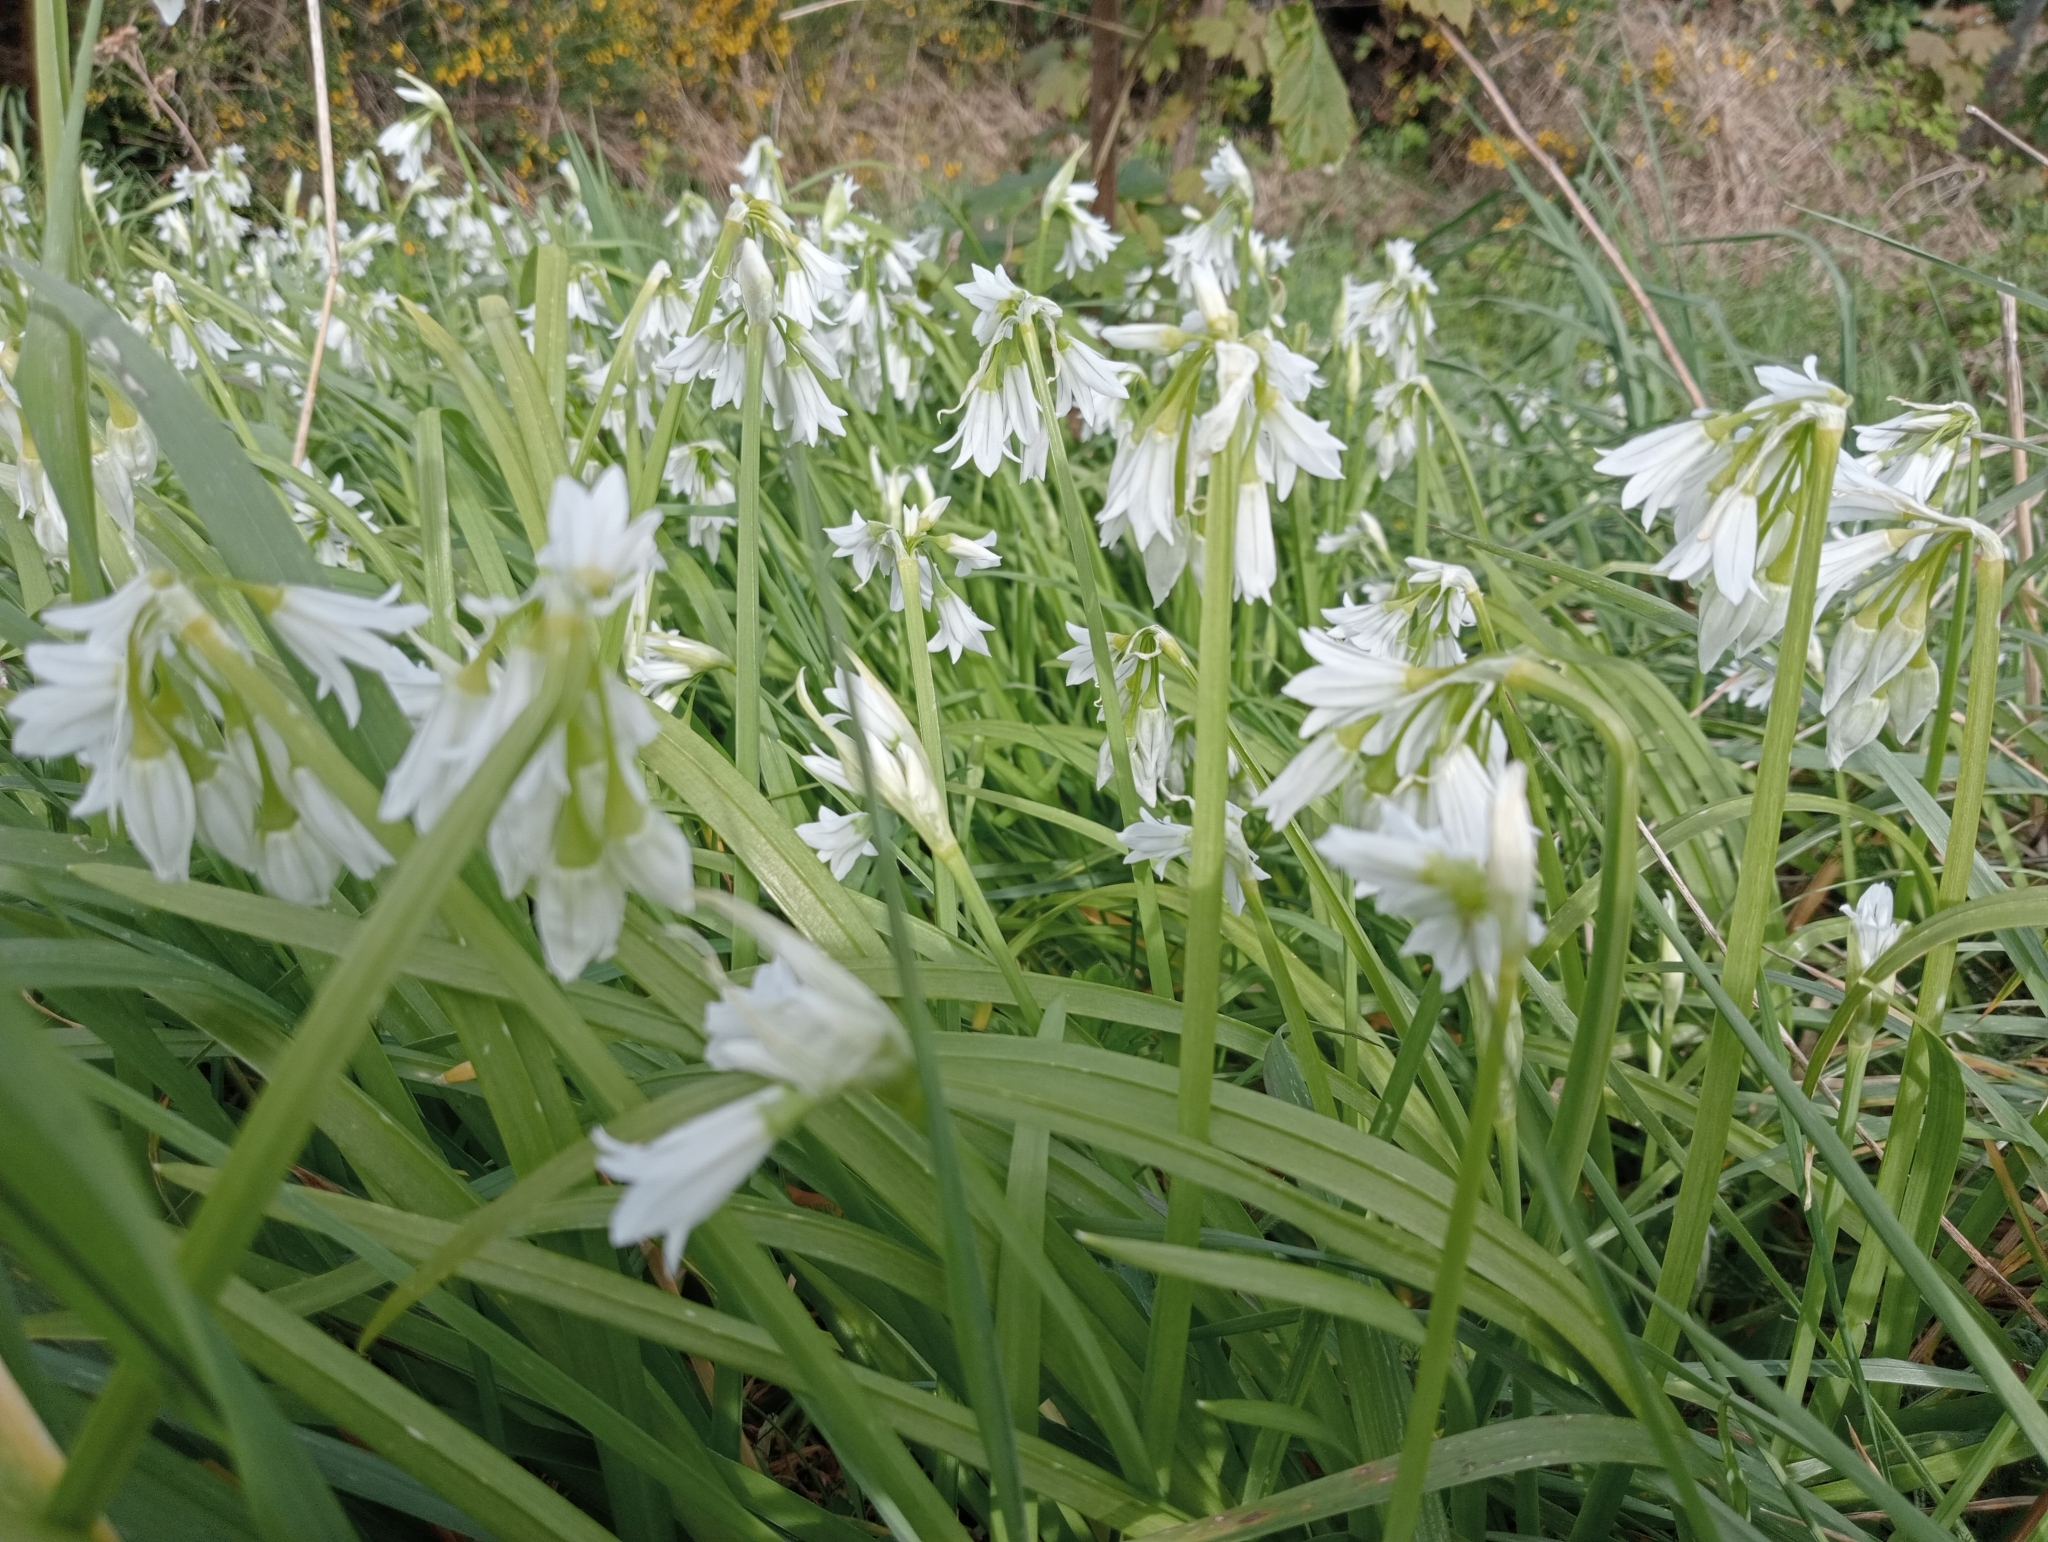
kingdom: Plantae
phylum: Tracheophyta
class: Liliopsida
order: Asparagales
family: Amaryllidaceae
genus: Allium
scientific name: Allium triquetrum
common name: Three-cornered garlic
